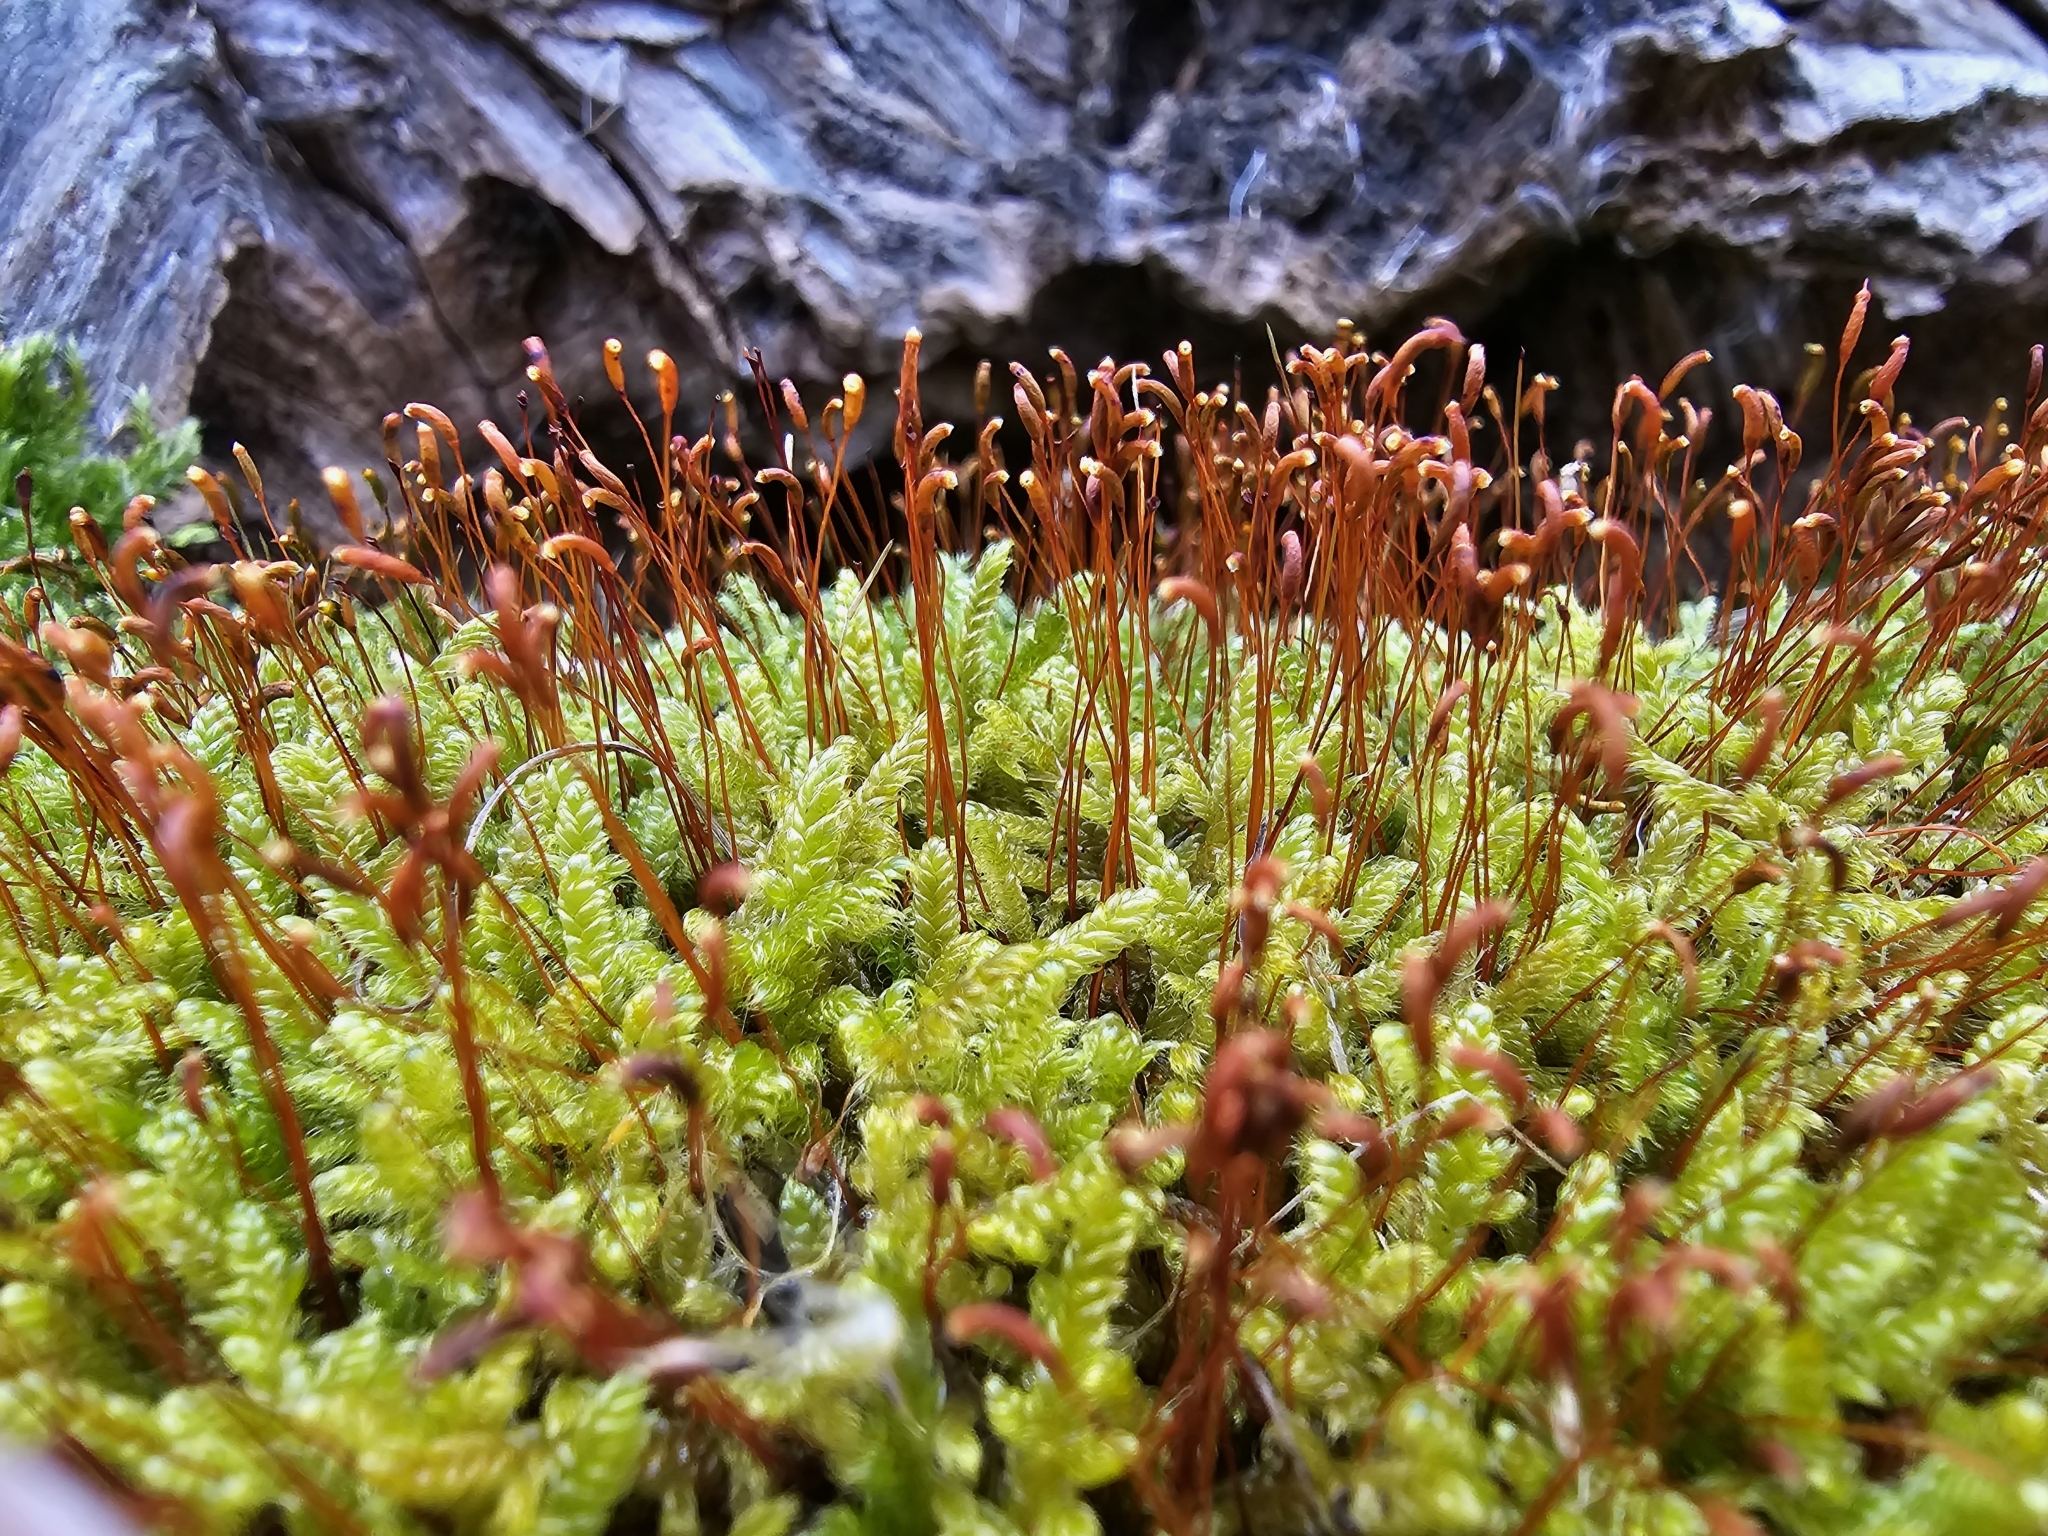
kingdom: Plantae
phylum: Bryophyta
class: Bryopsida
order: Hypnales
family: Hypnaceae
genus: Hypnum
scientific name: Hypnum cupressiforme
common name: Cypress-leaved plait-moss
